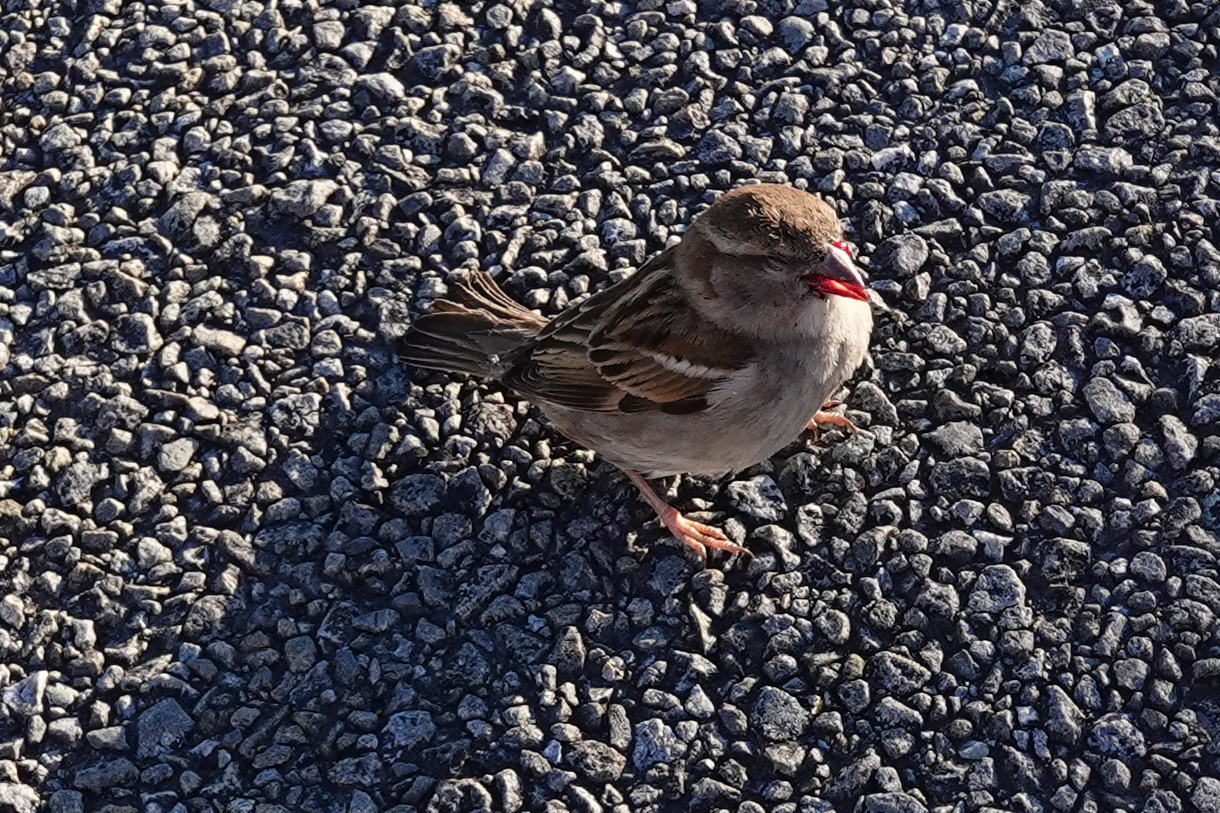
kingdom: Animalia
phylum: Chordata
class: Aves
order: Passeriformes
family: Passeridae
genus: Passer
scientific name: Passer domesticus
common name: House sparrow
